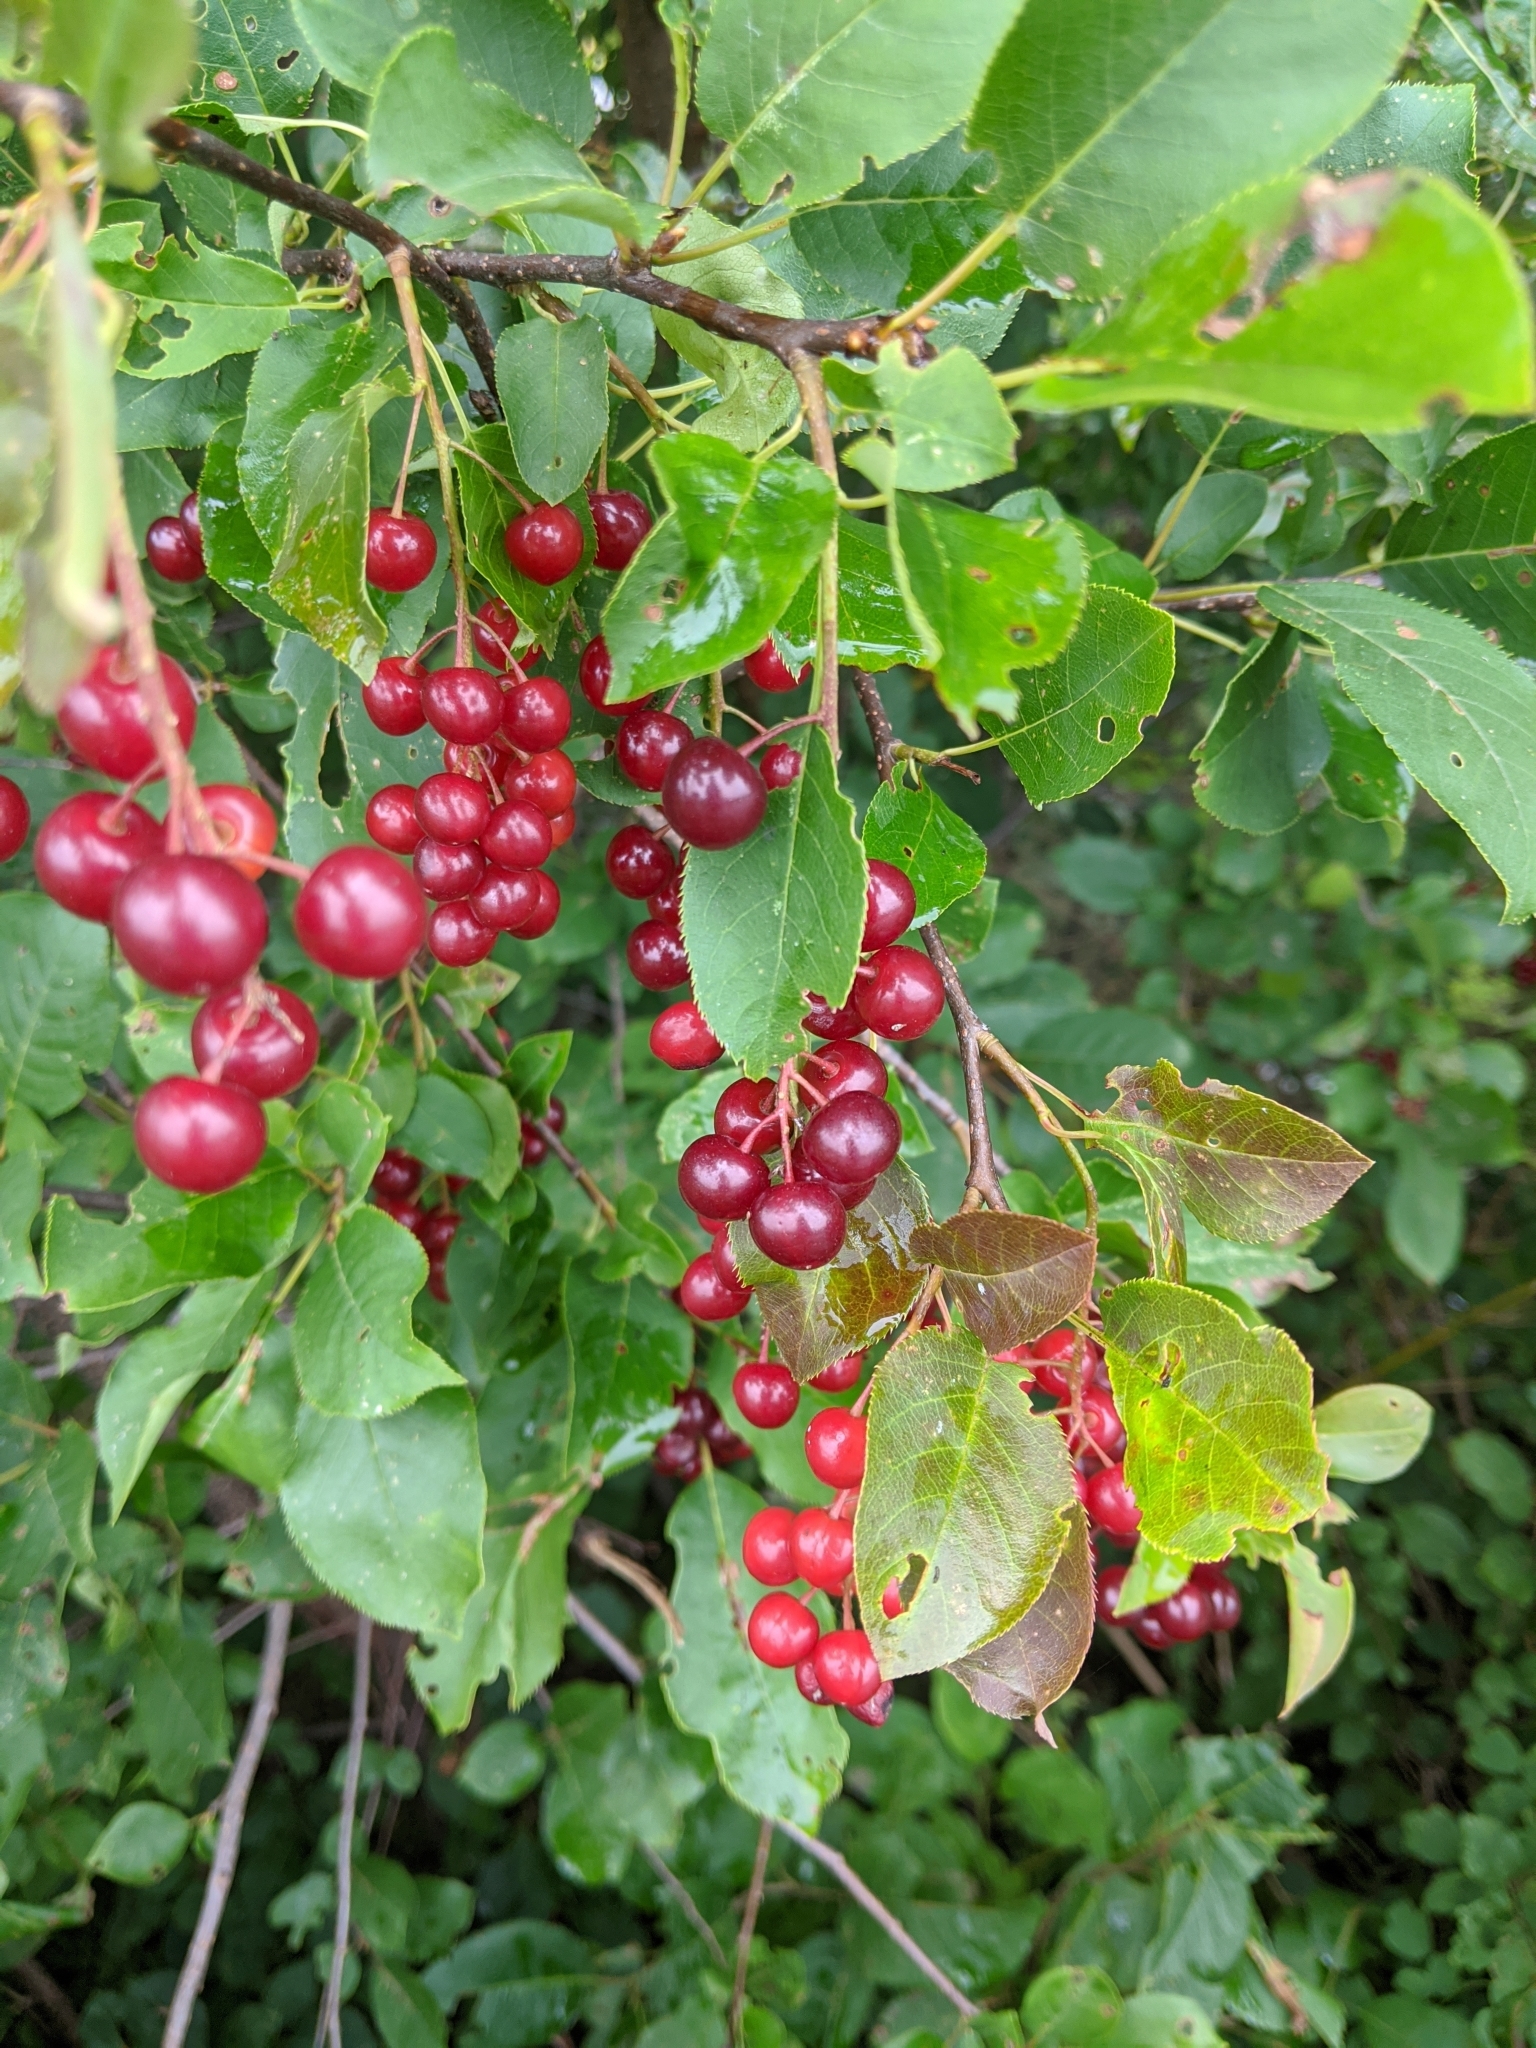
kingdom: Plantae
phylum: Tracheophyta
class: Magnoliopsida
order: Rosales
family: Rosaceae
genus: Prunus
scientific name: Prunus virginiana
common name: Chokecherry
